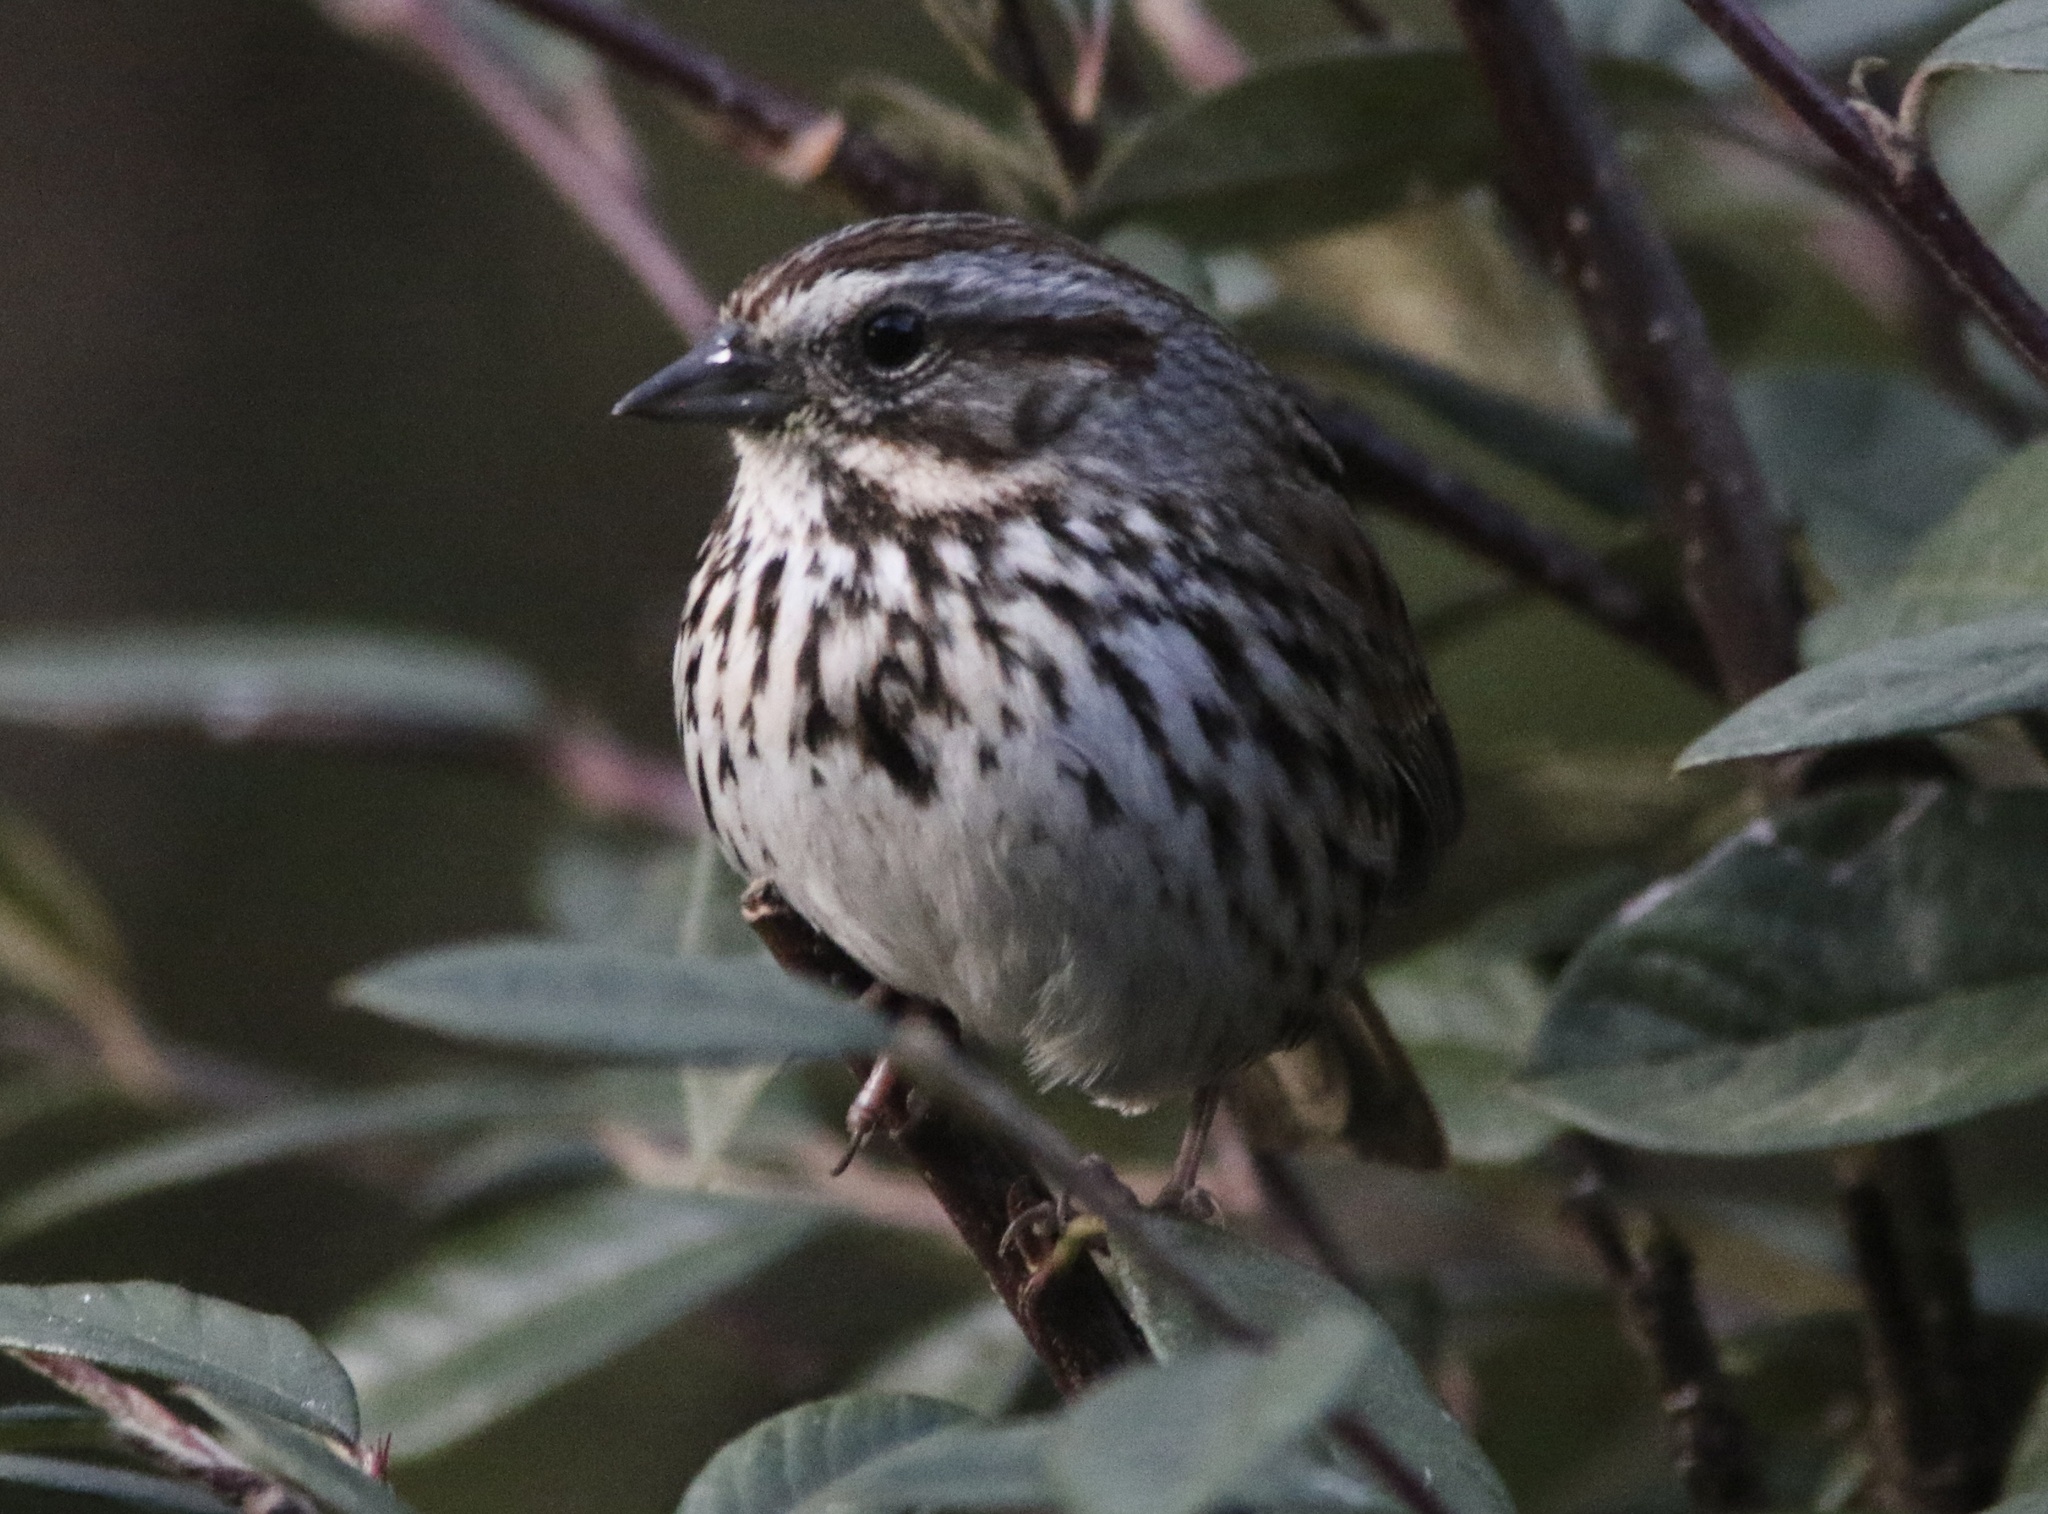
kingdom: Animalia
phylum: Chordata
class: Aves
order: Passeriformes
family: Passerellidae
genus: Melospiza
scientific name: Melospiza melodia
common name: Song sparrow
